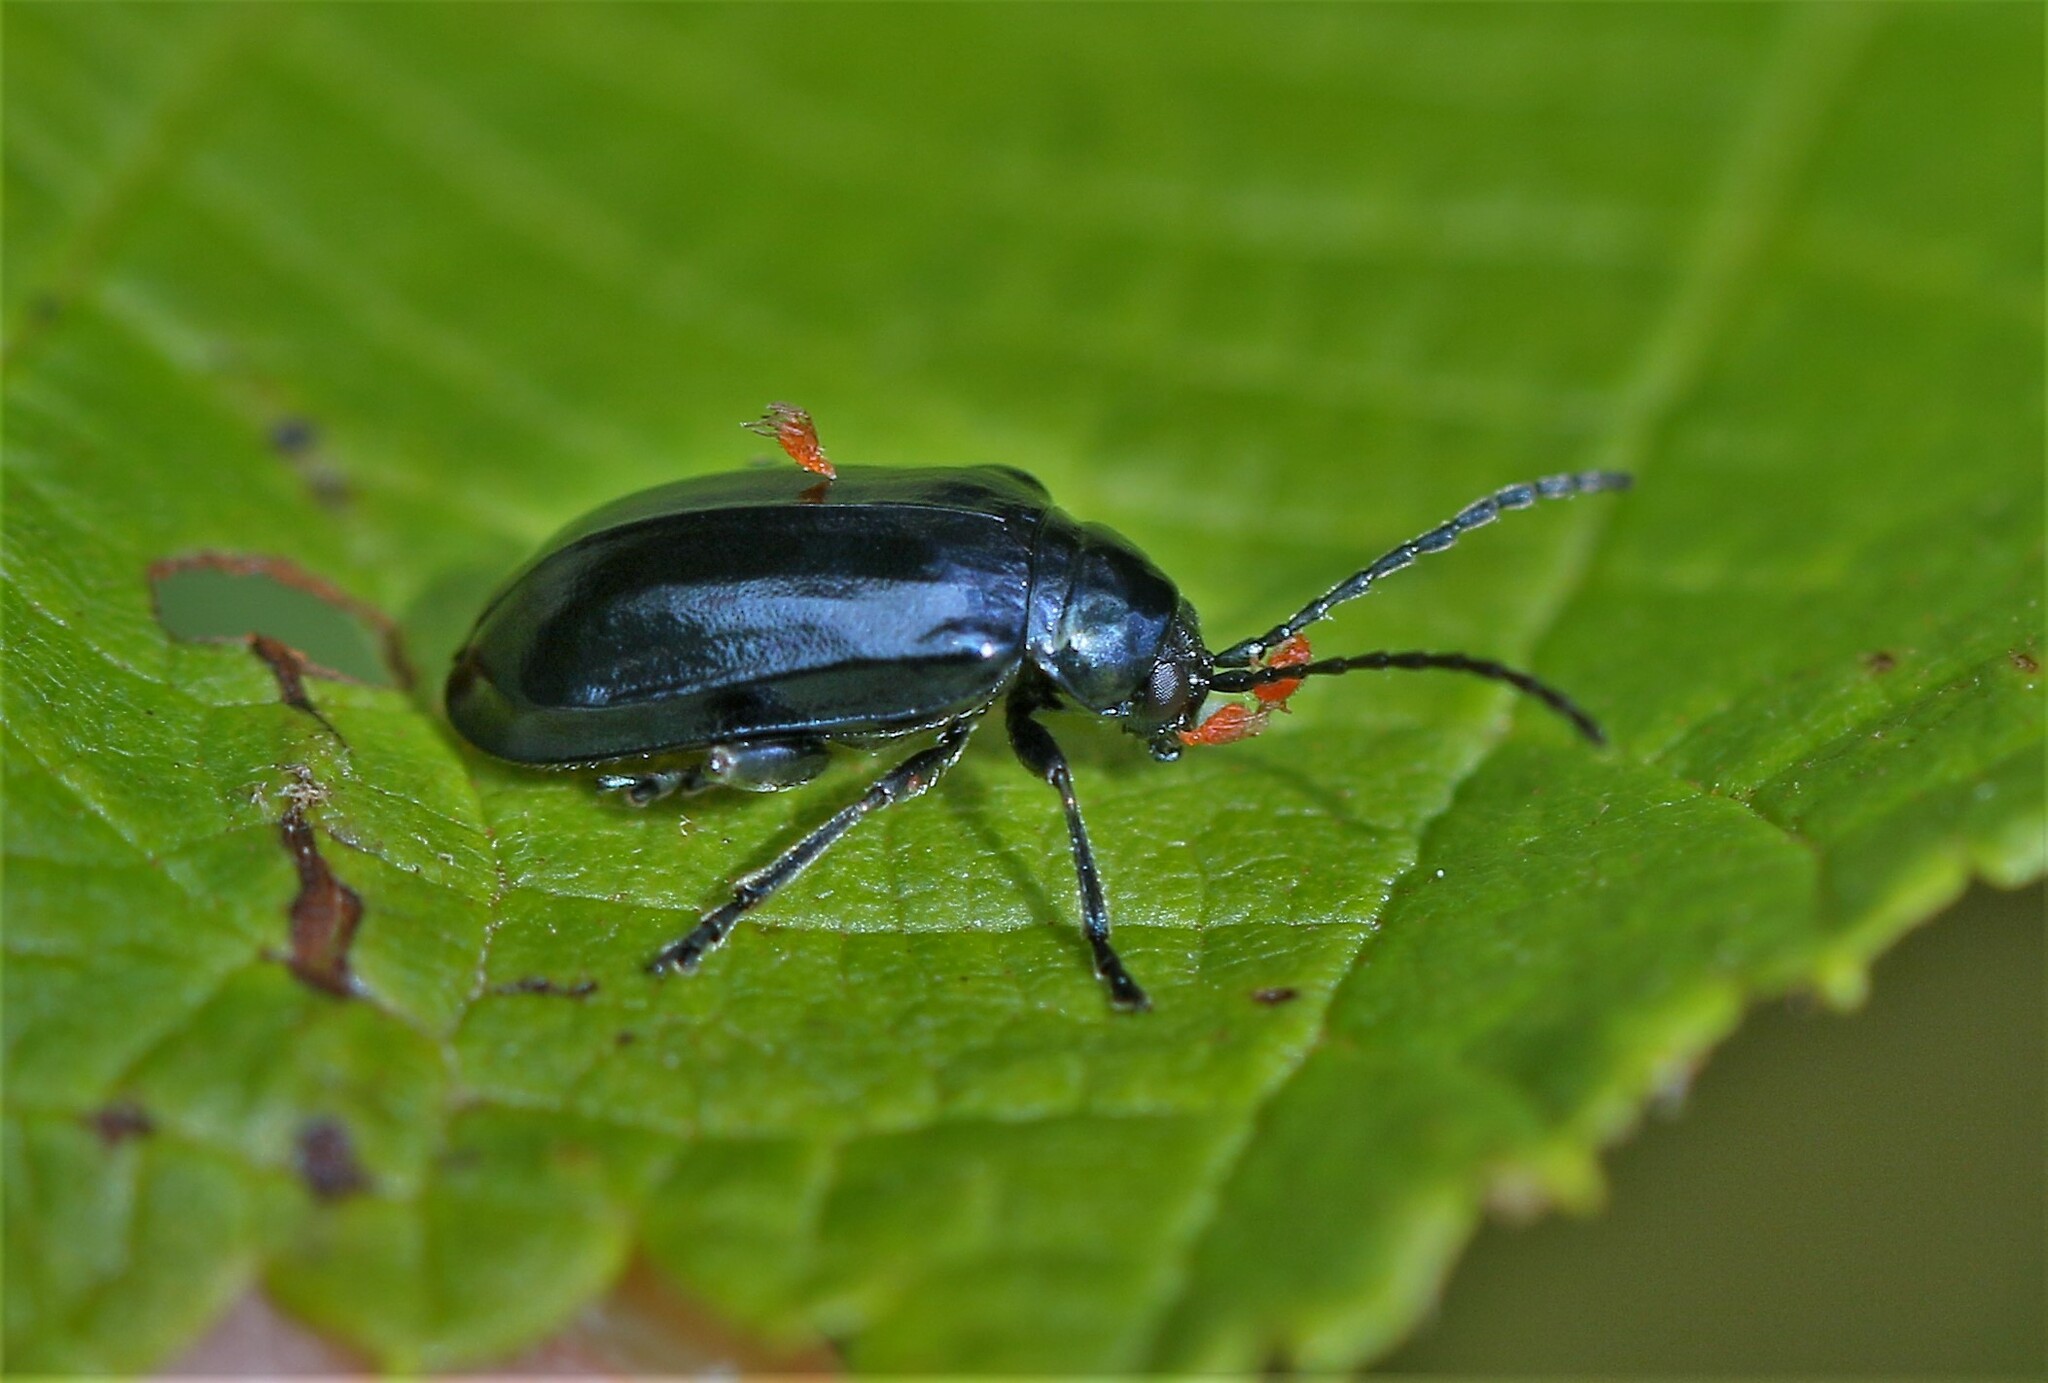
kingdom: Animalia
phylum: Arthropoda
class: Insecta
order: Coleoptera
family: Chrysomelidae
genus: Altica
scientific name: Altica ambiens
